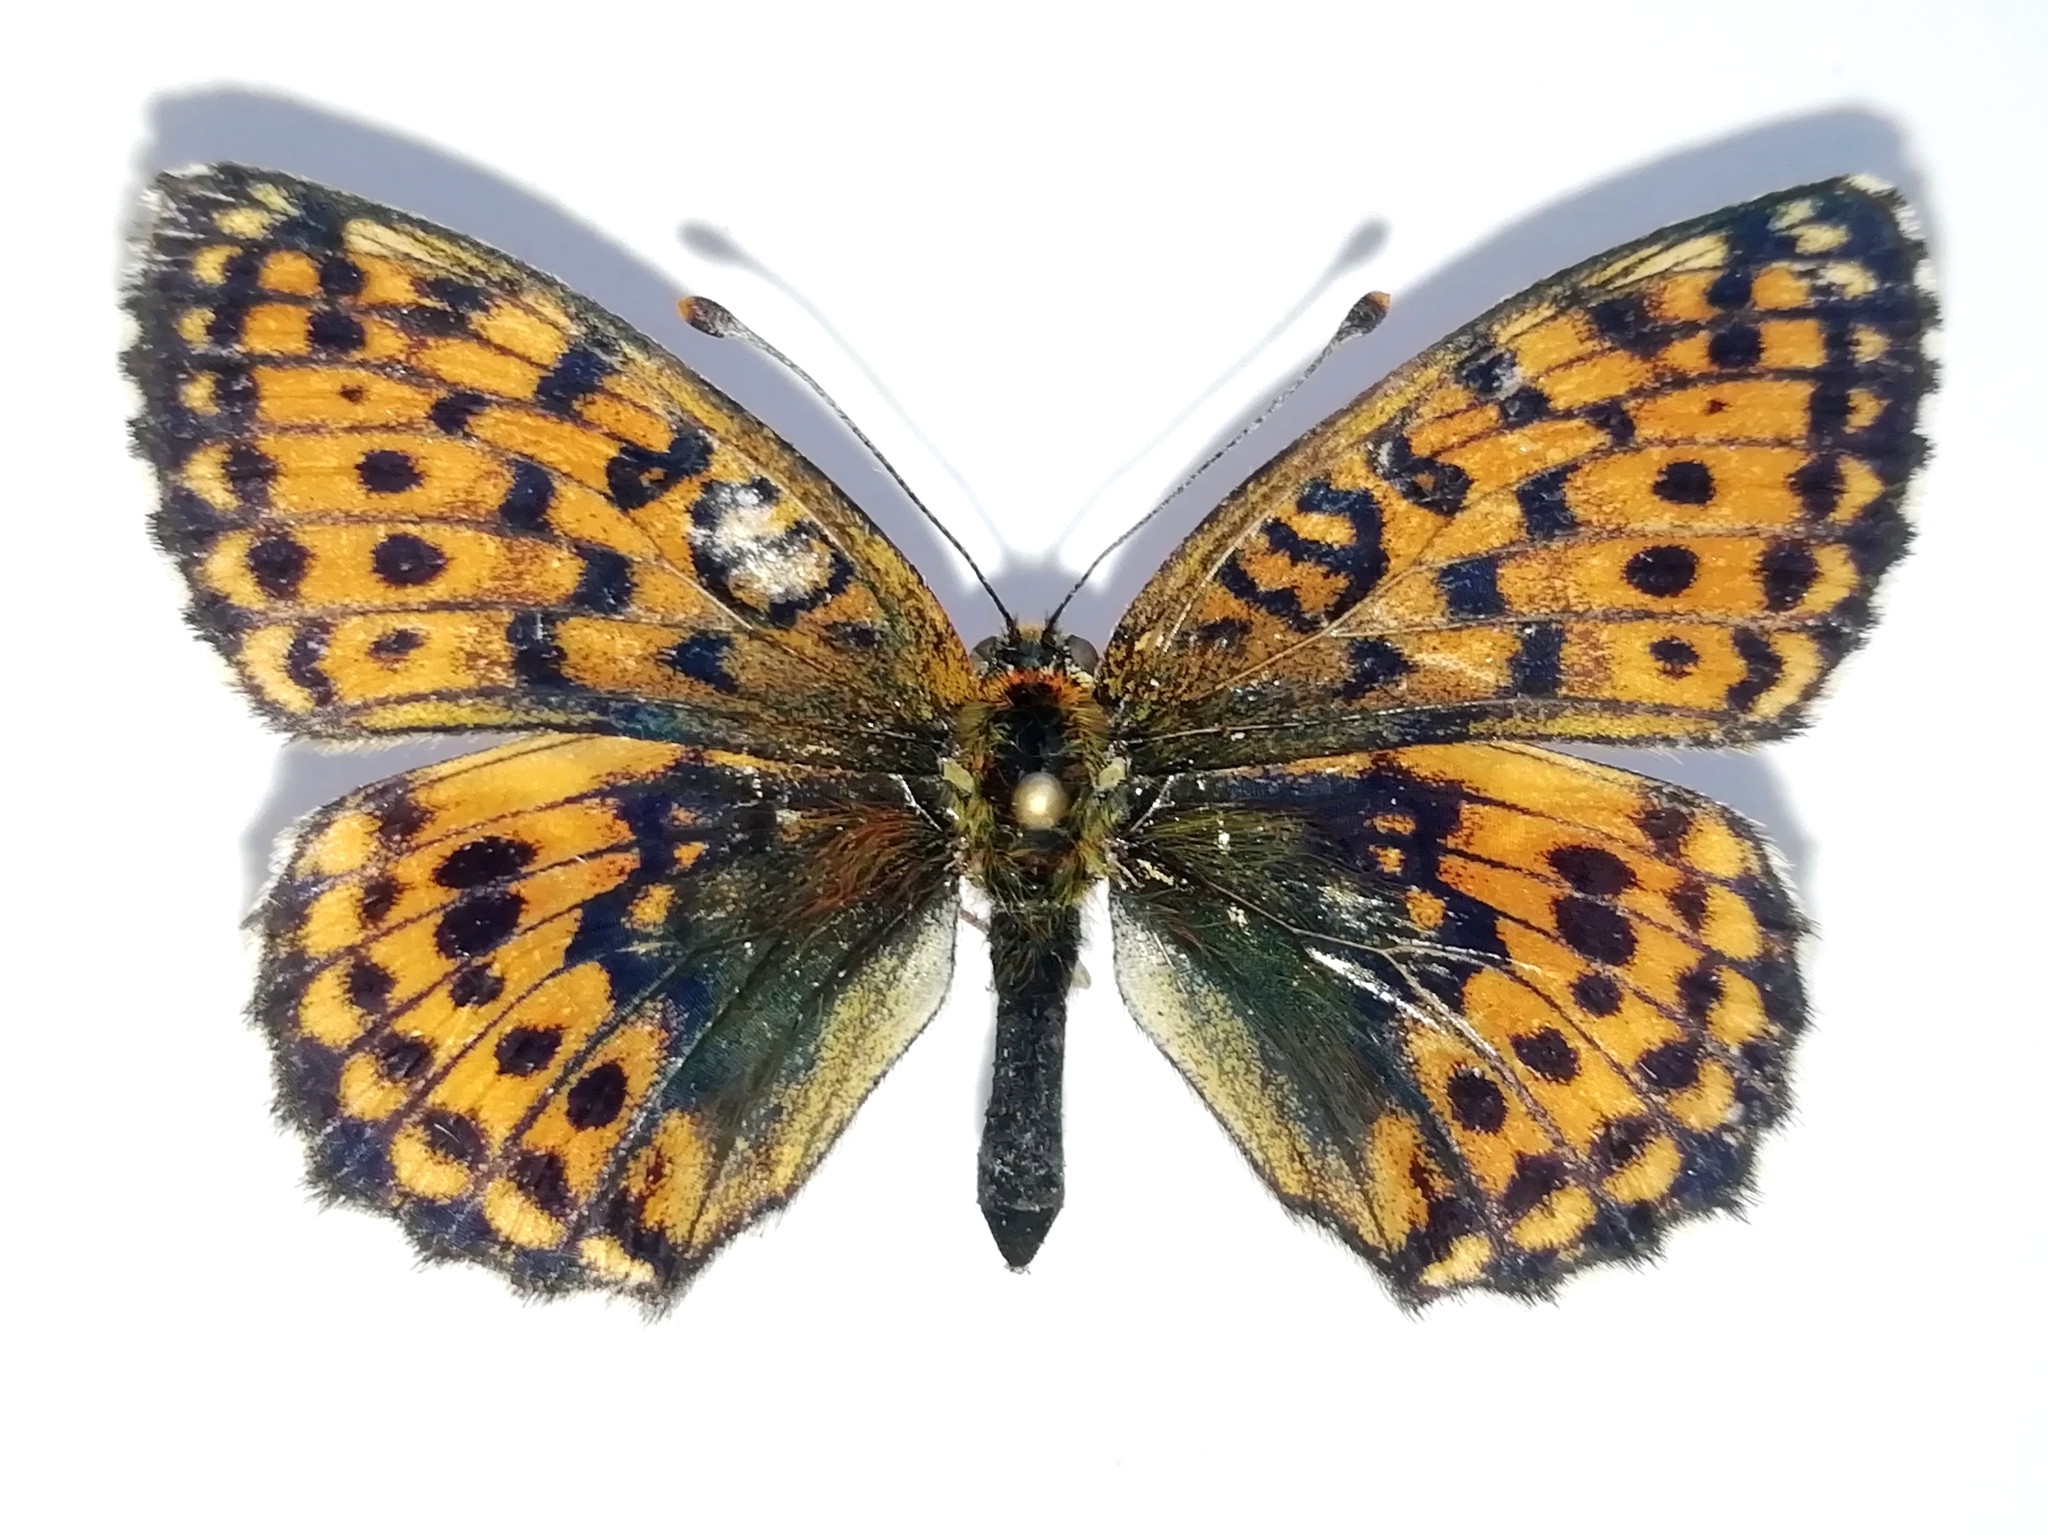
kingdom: Animalia
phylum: Arthropoda
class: Insecta
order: Lepidoptera
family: Nymphalidae
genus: Brenthis
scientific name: Brenthis ino
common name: Lesser marbled fritillary
